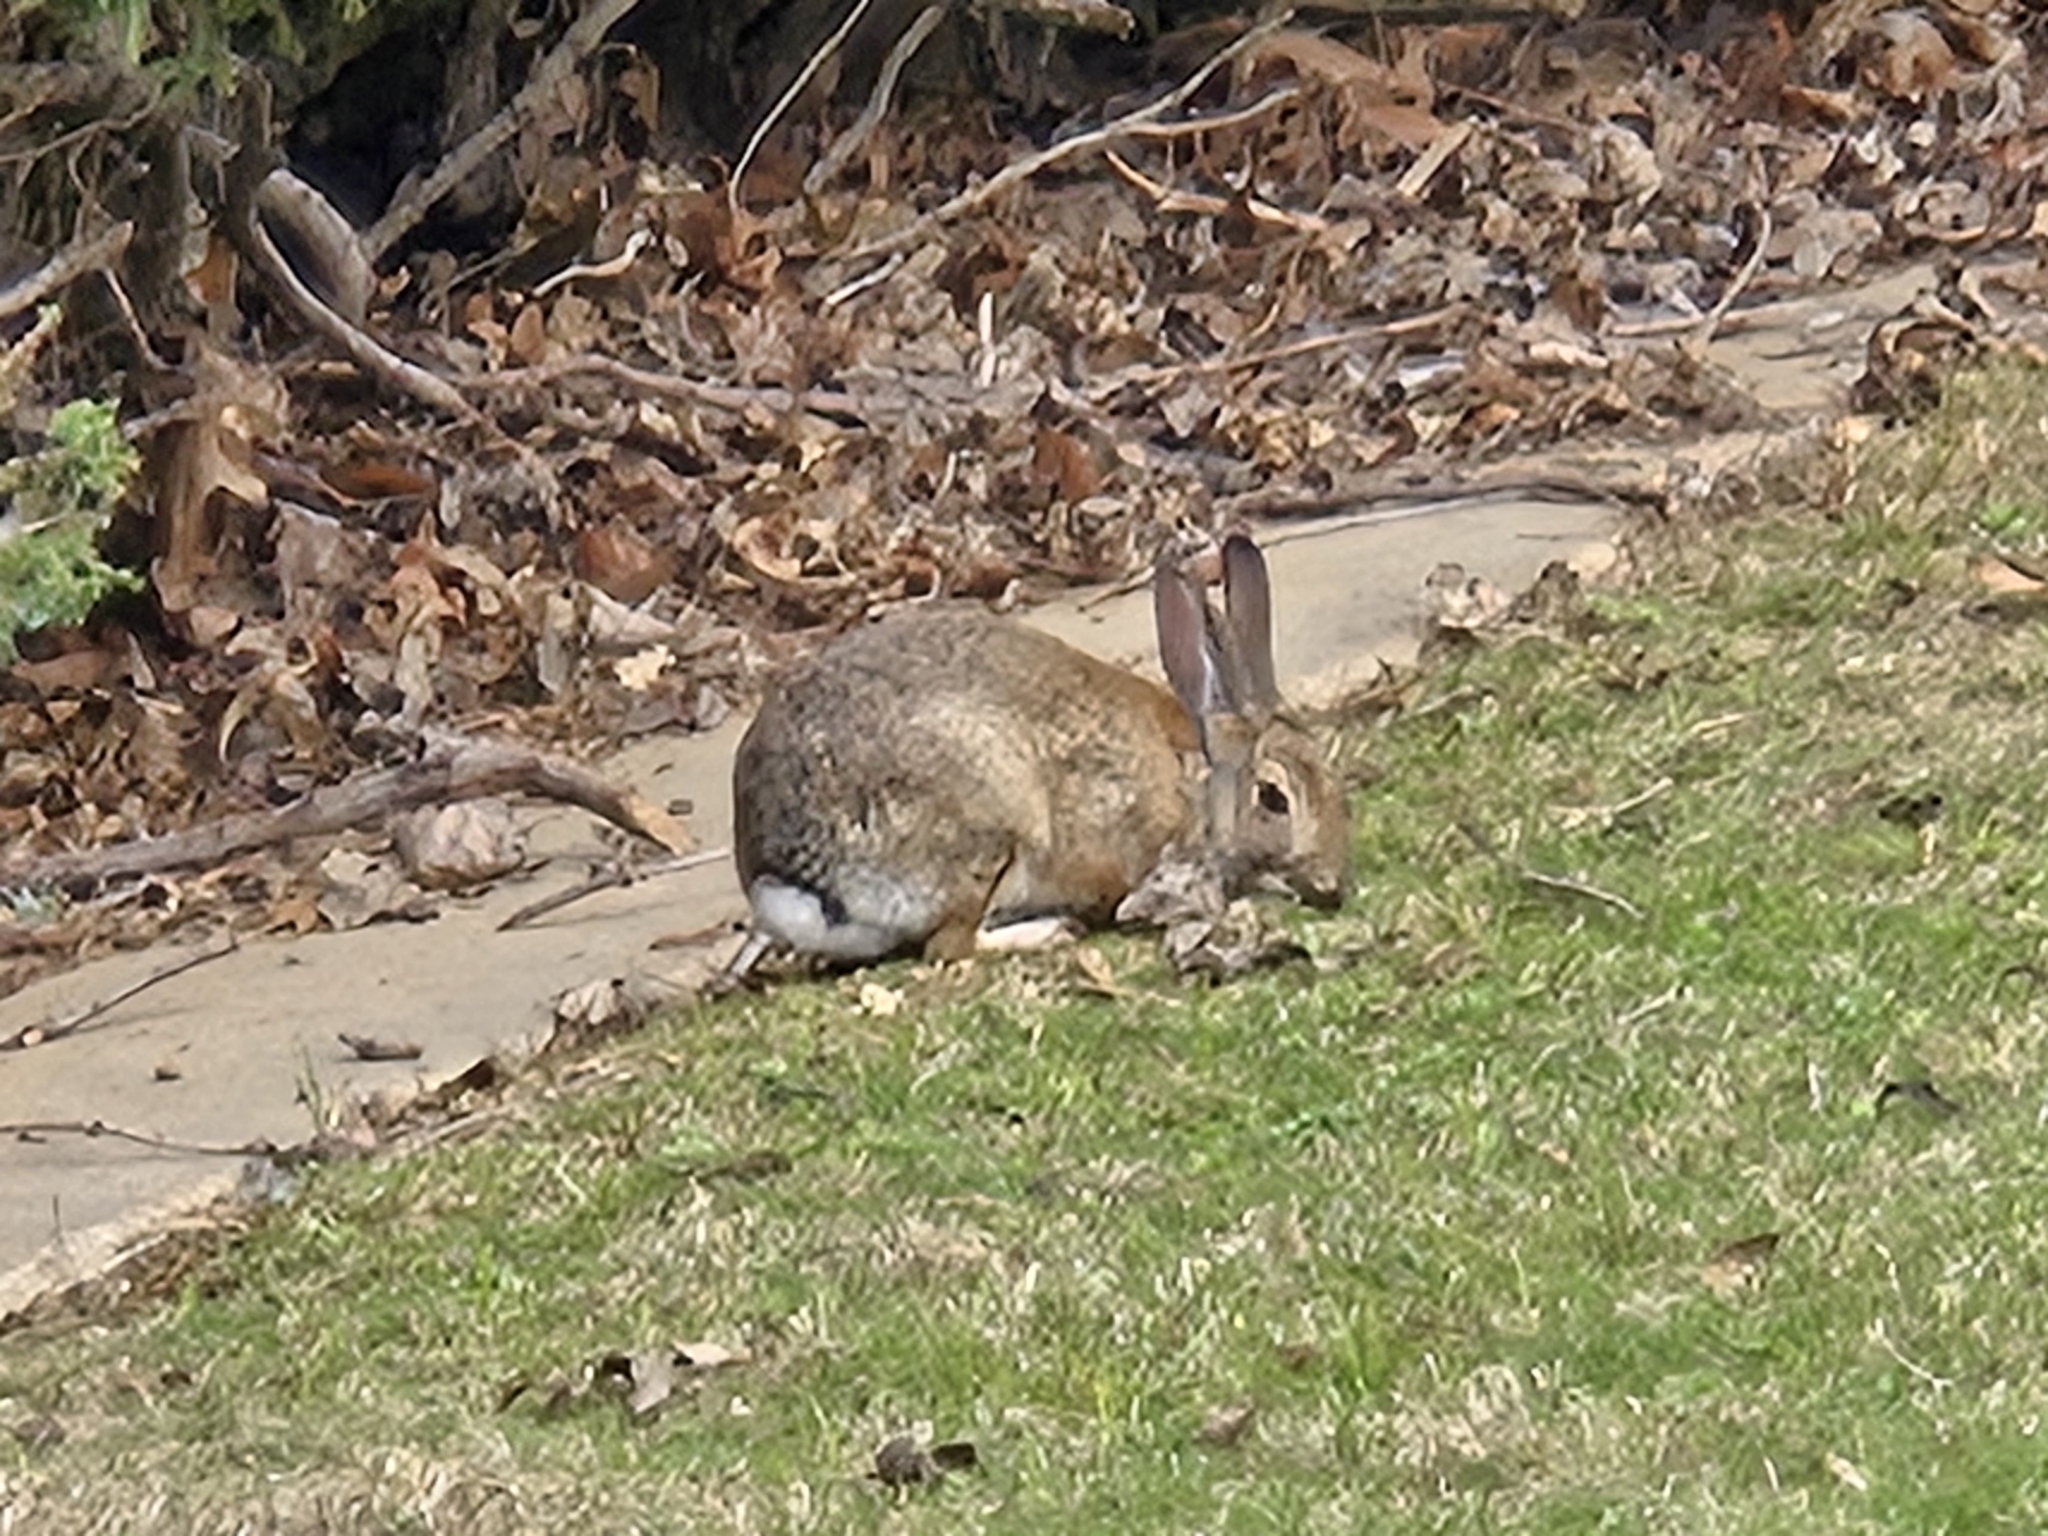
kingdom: Animalia
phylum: Chordata
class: Mammalia
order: Lagomorpha
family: Leporidae
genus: Sylvilagus
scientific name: Sylvilagus audubonii
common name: Desert cottontail
